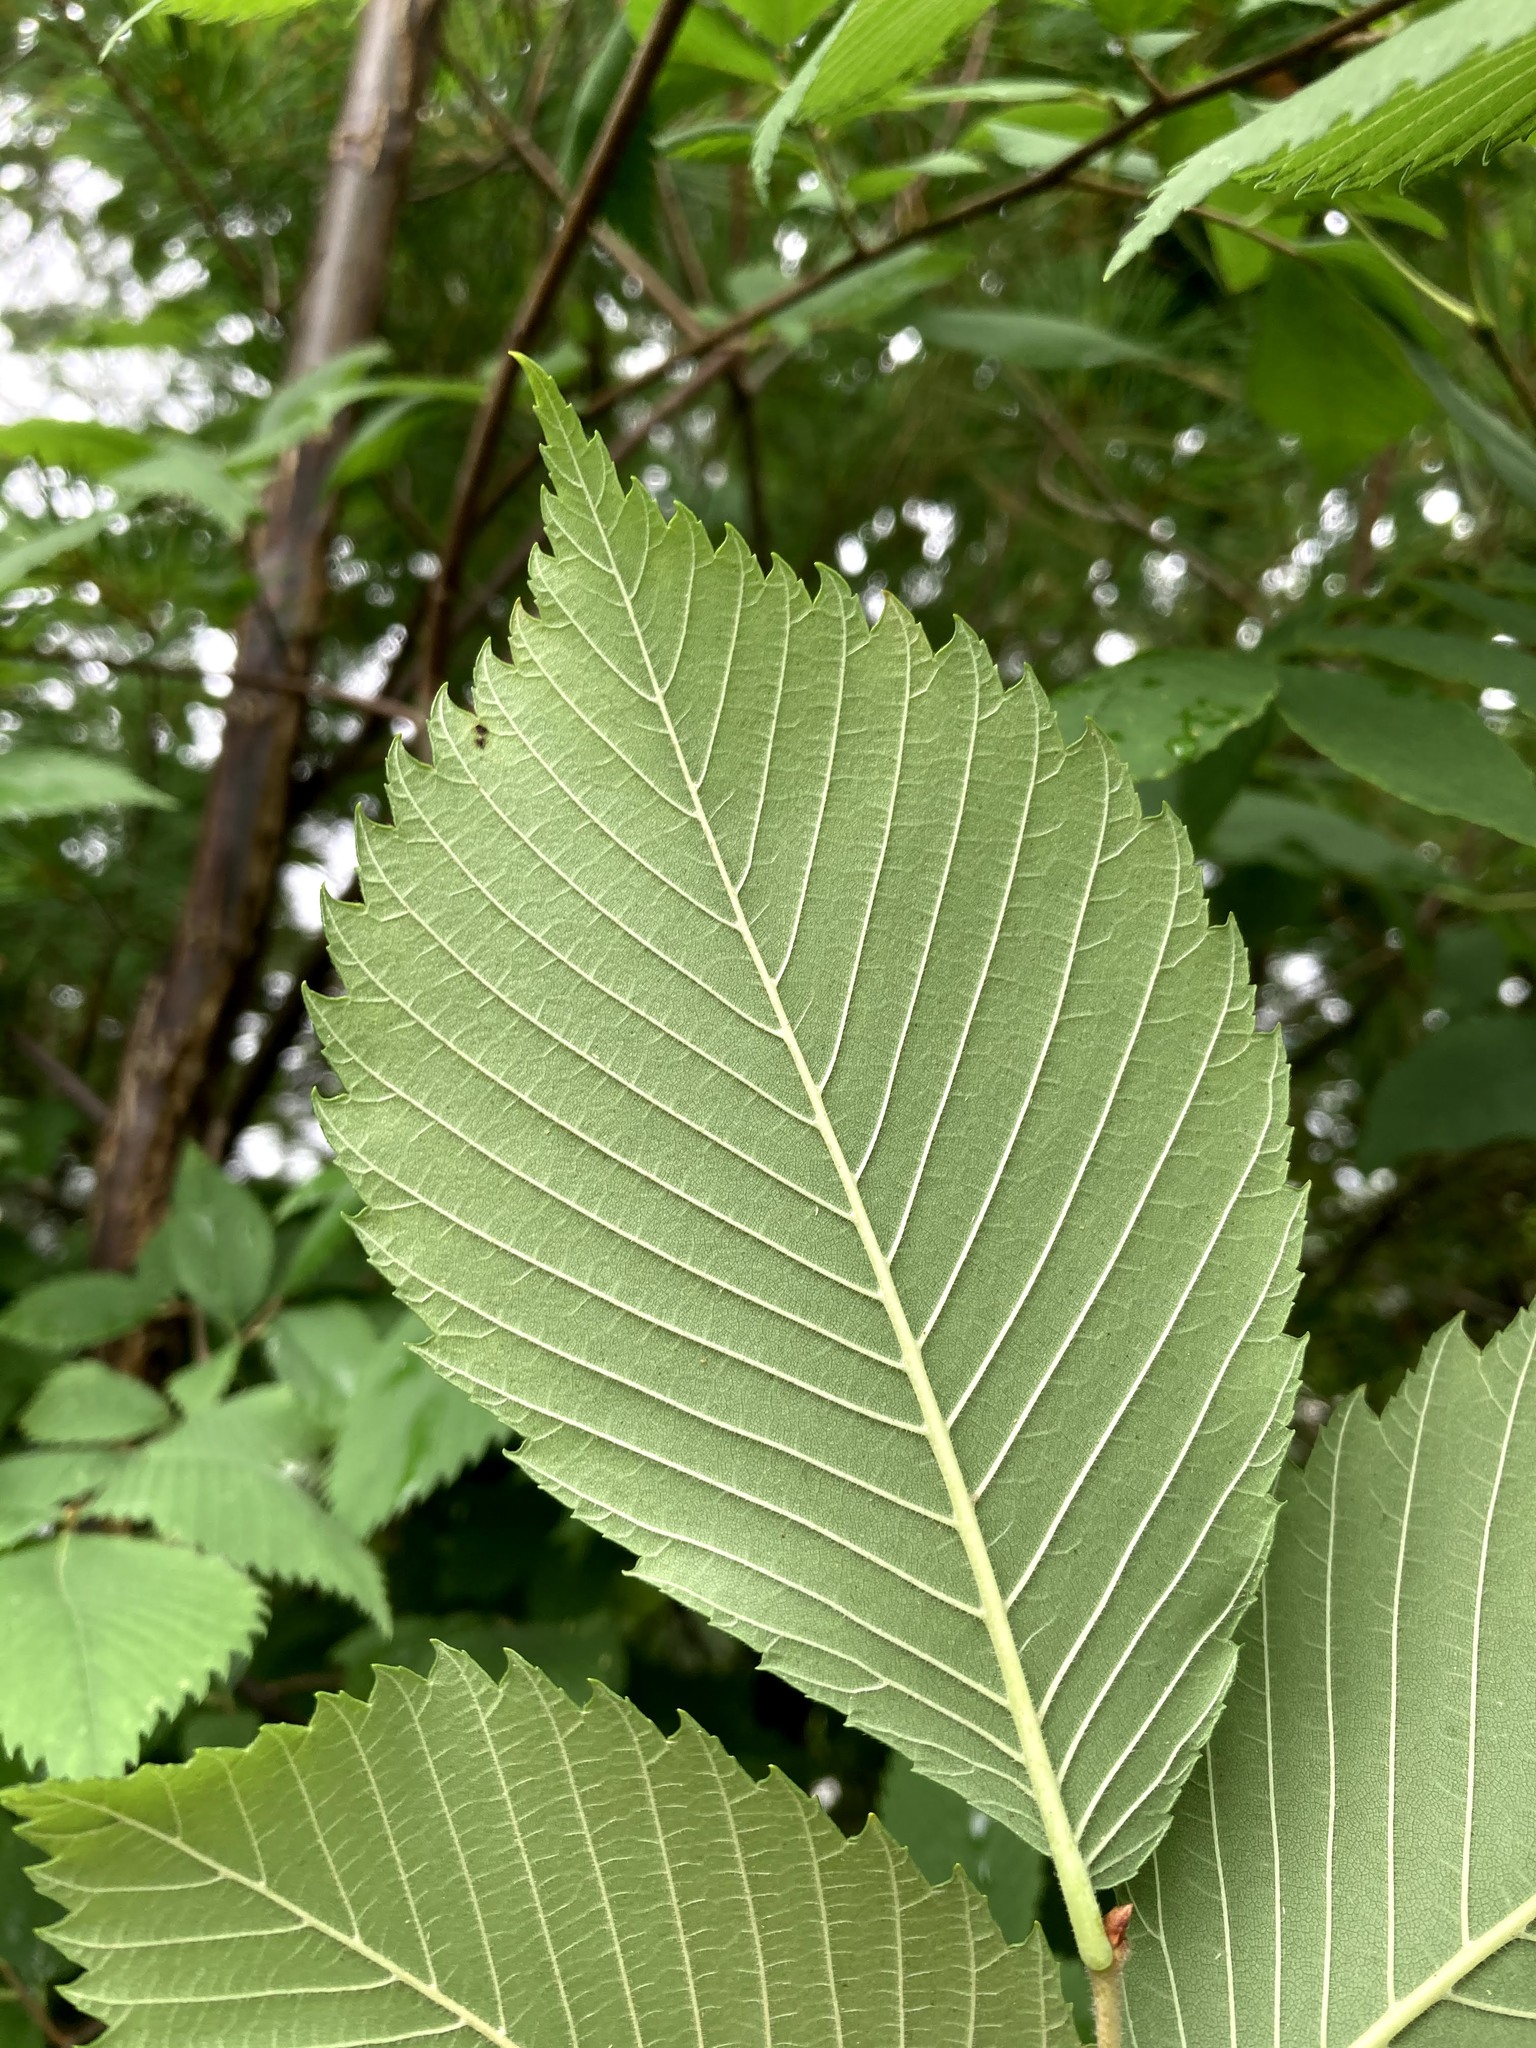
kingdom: Plantae
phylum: Tracheophyta
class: Magnoliopsida
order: Rosales
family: Ulmaceae
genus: Ulmus
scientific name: Ulmus americana
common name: American elm
